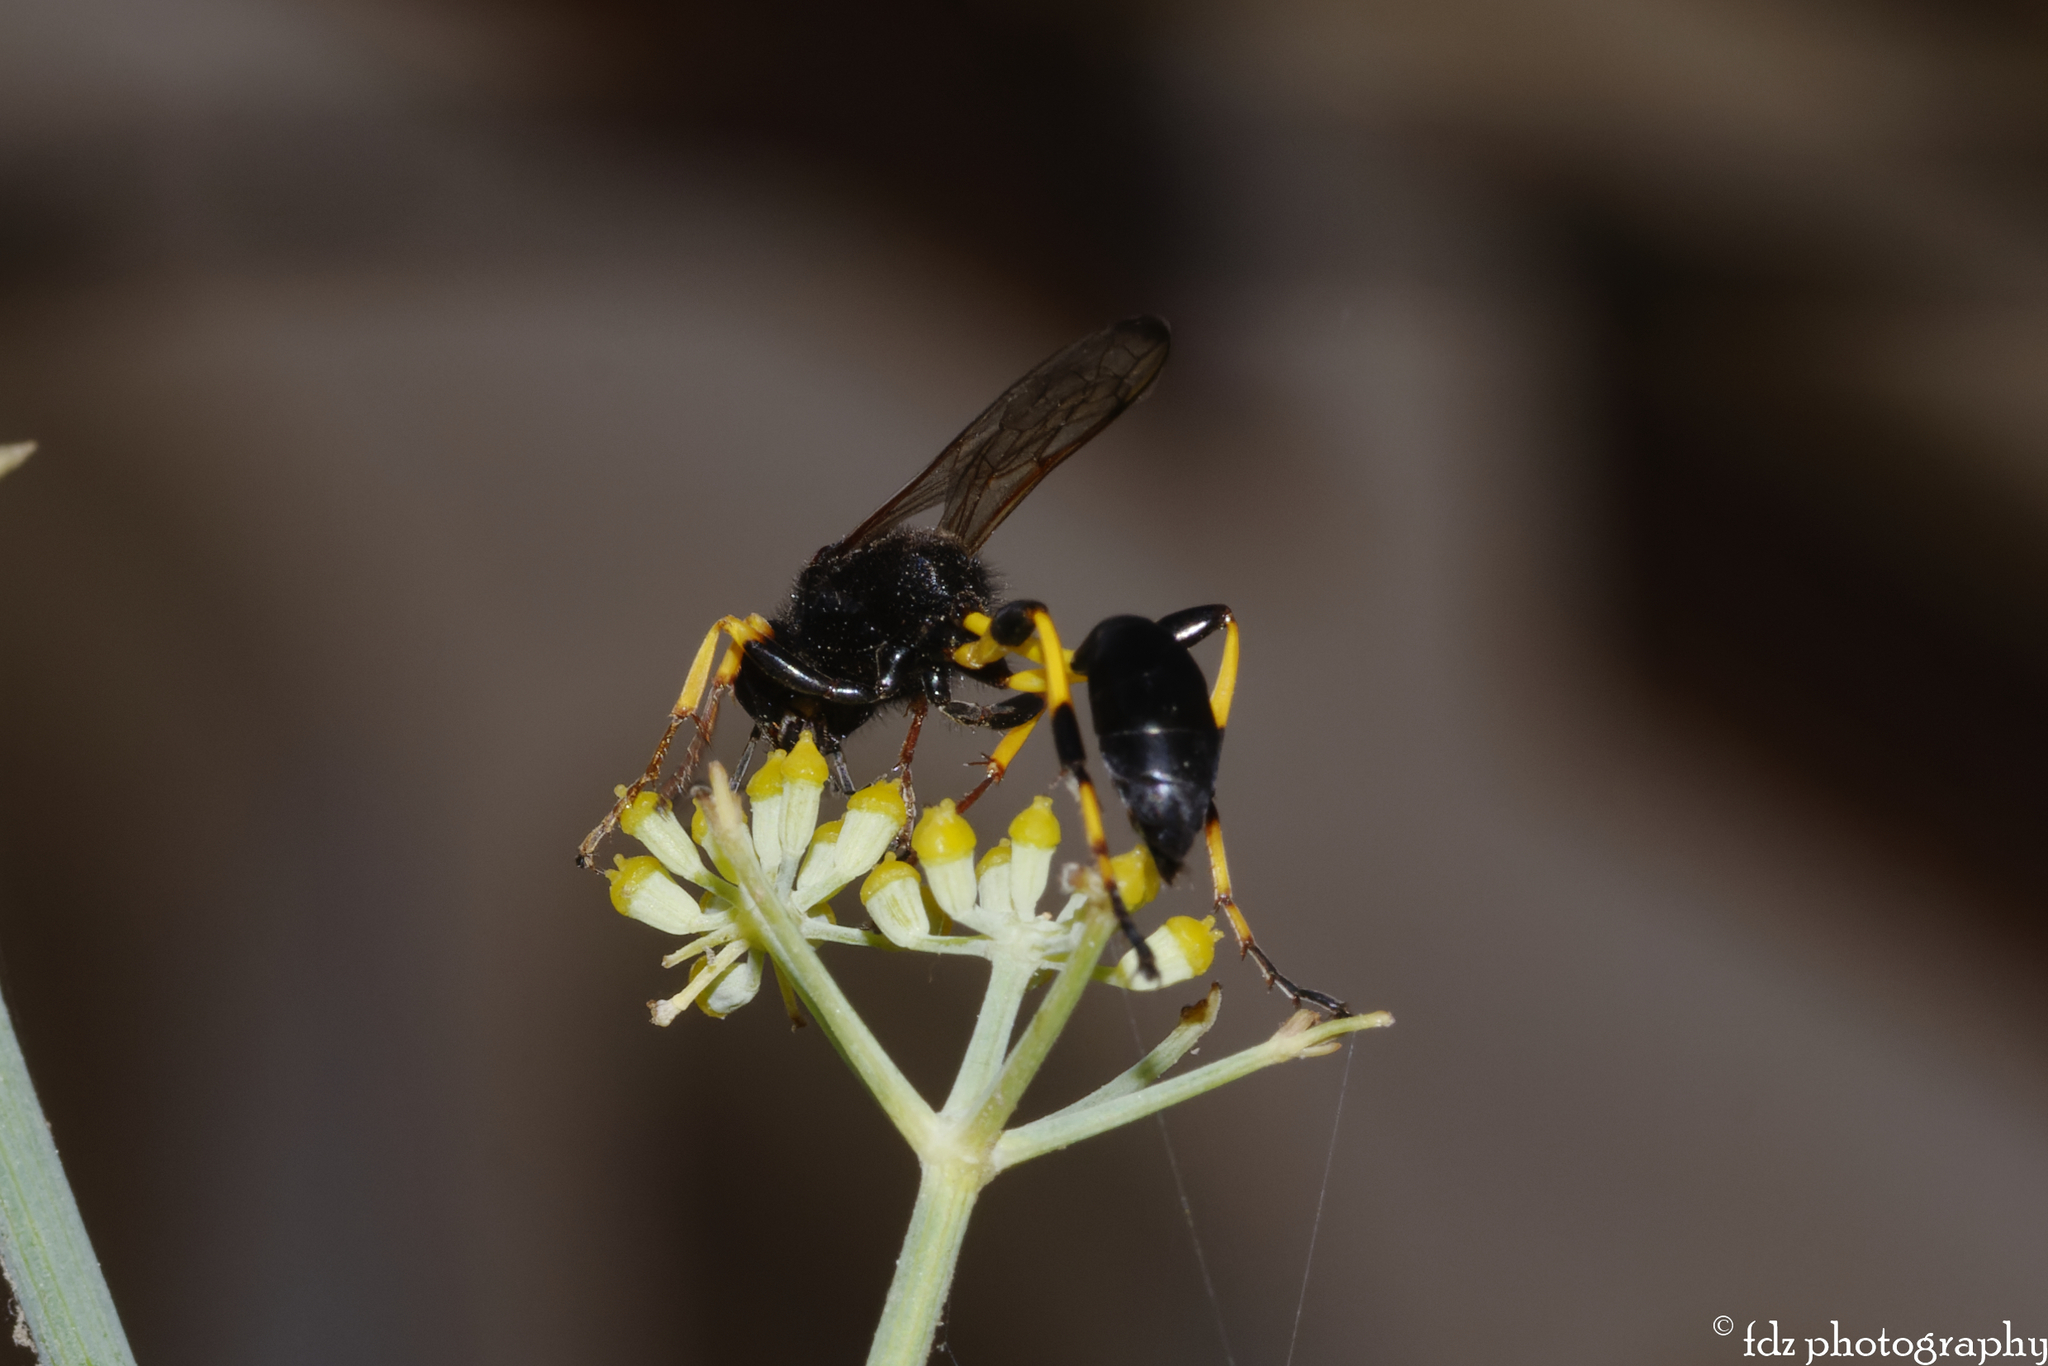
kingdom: Animalia
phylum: Arthropoda
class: Insecta
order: Hymenoptera
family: Sphecidae
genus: Sceliphron
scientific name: Sceliphron spirifex
